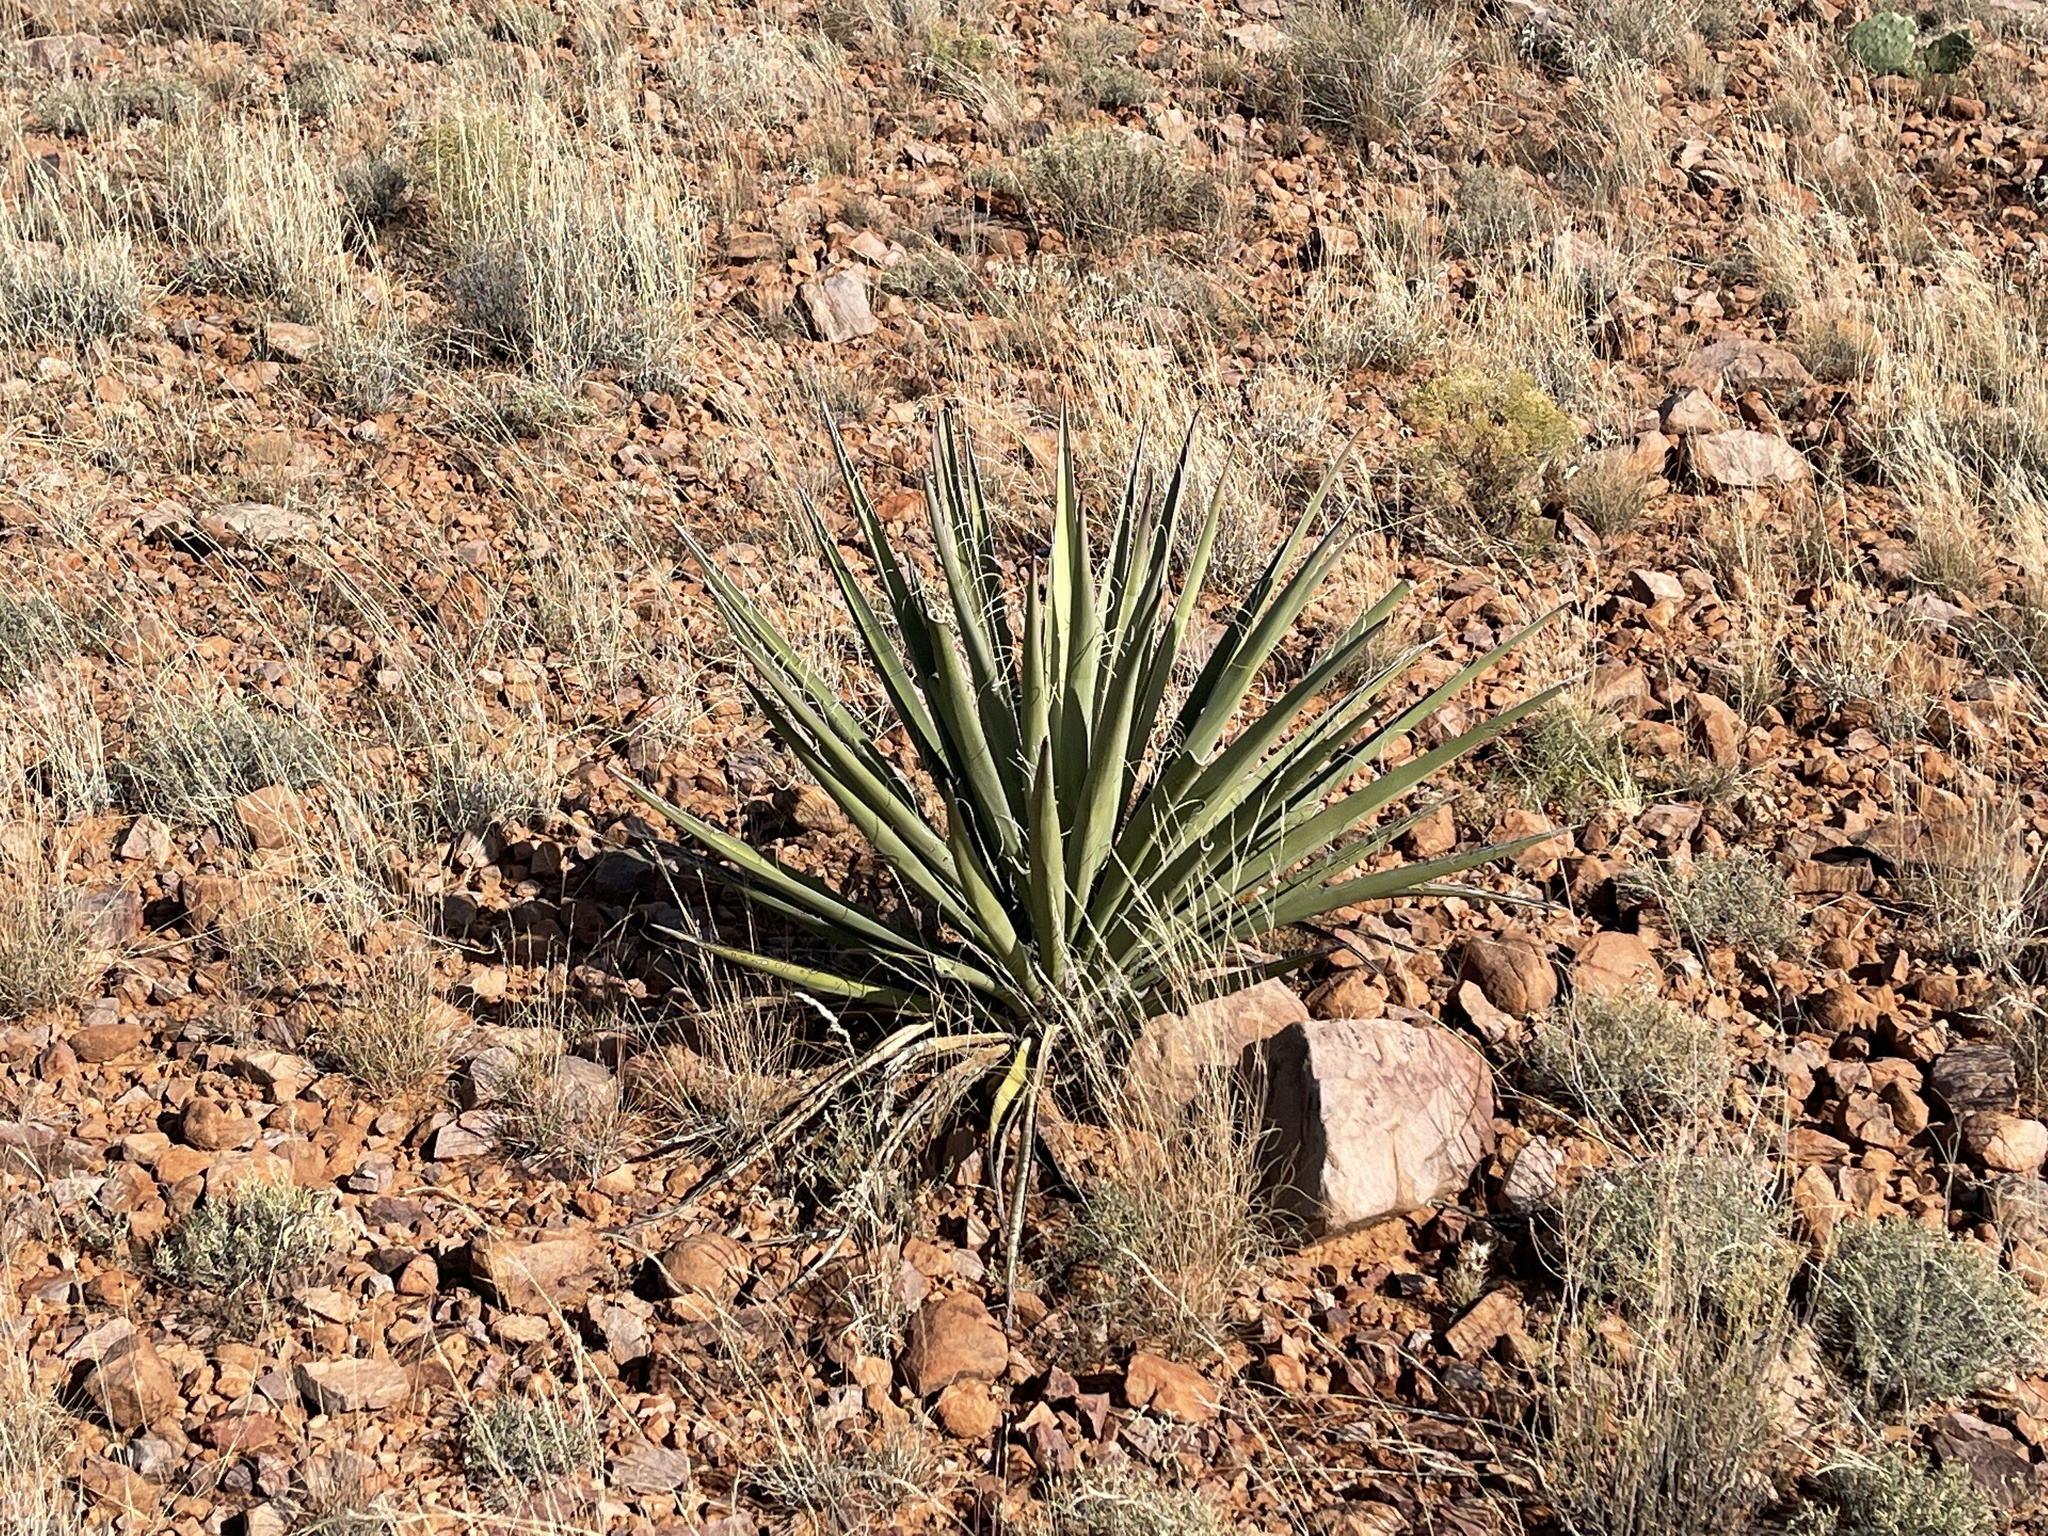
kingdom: Plantae
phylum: Tracheophyta
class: Liliopsida
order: Asparagales
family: Asparagaceae
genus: Yucca
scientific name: Yucca baccata
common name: Banana yucca
